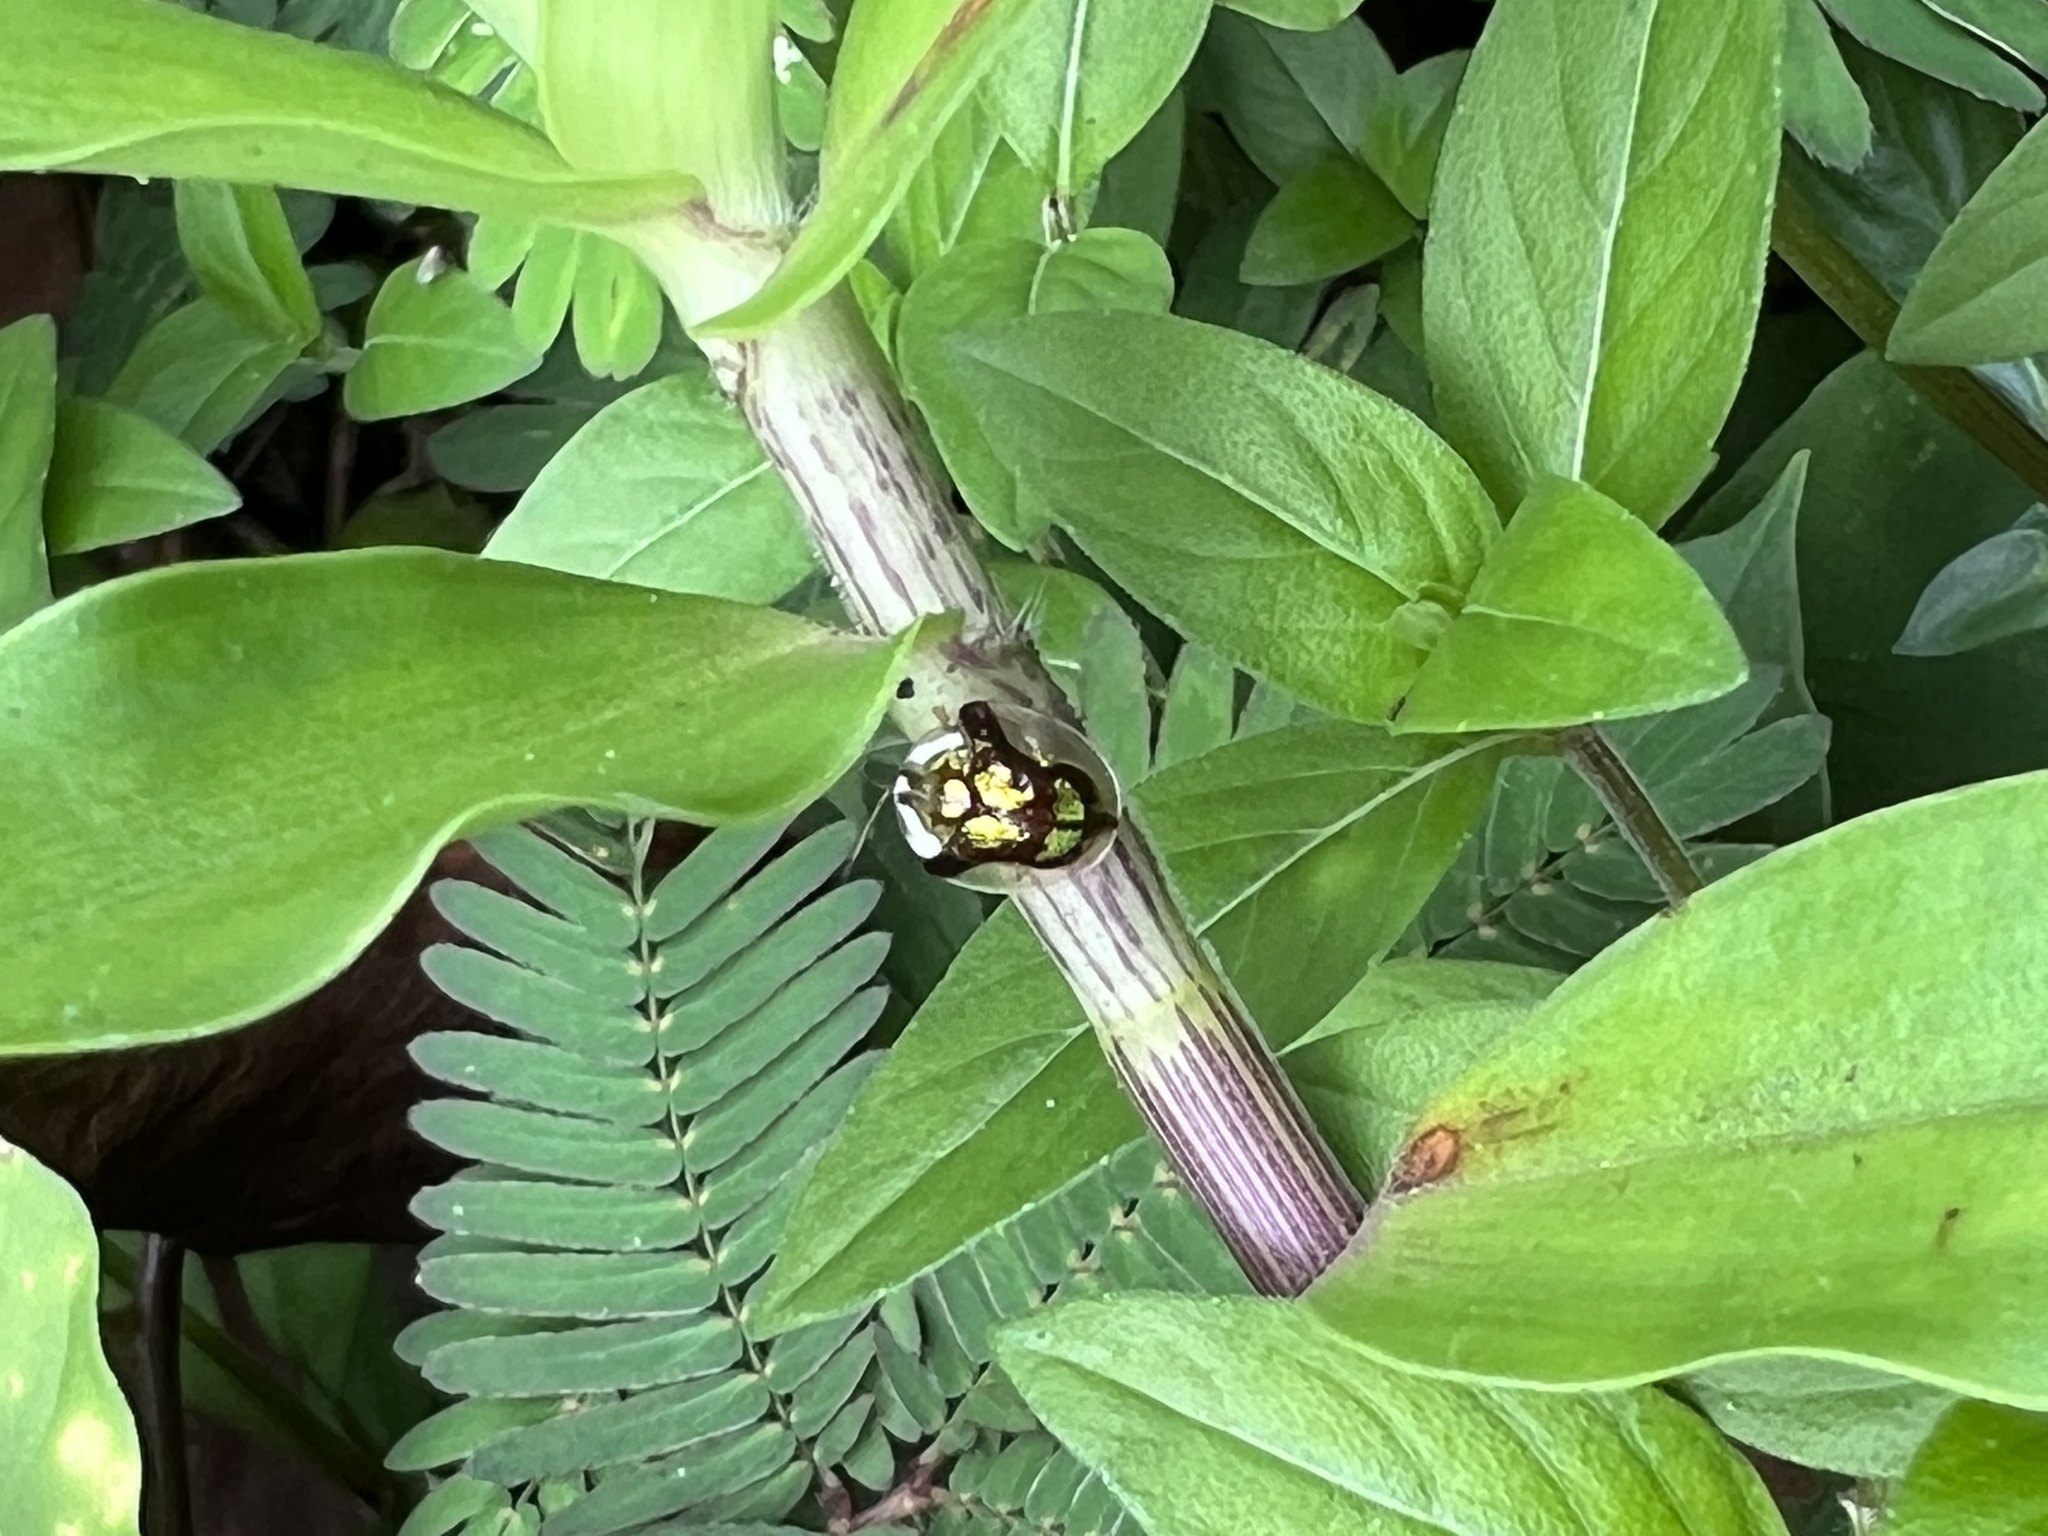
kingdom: Animalia
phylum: Arthropoda
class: Insecta
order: Coleoptera
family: Chrysomelidae
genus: Deloyala
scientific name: Deloyala fuliginosa
